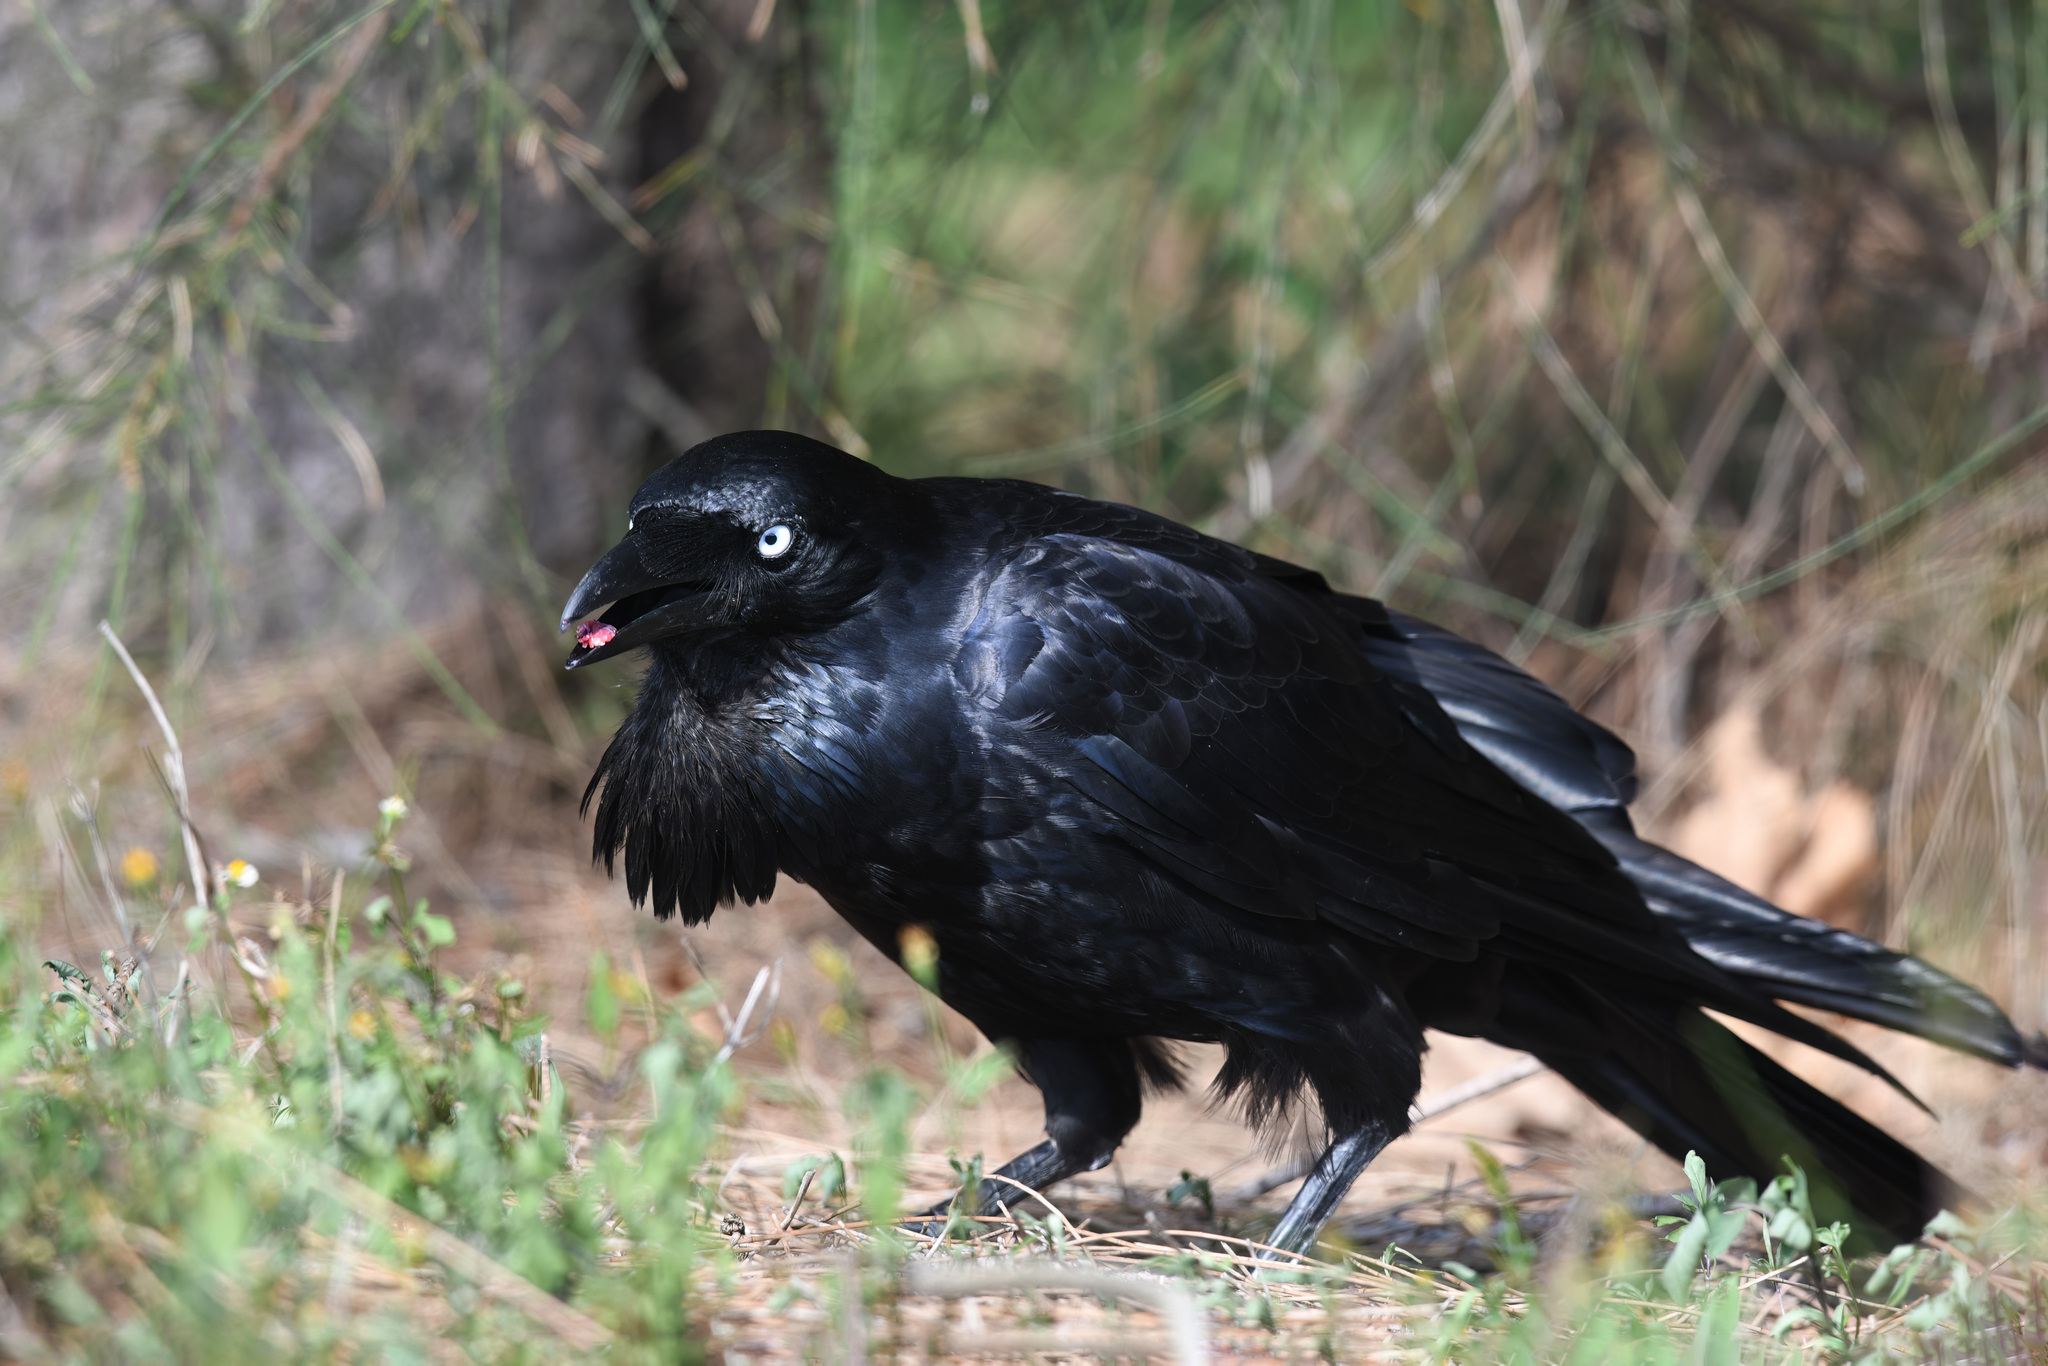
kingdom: Animalia
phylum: Chordata
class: Aves
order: Passeriformes
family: Corvidae
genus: Corvus
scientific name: Corvus coronoides
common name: Australian raven
